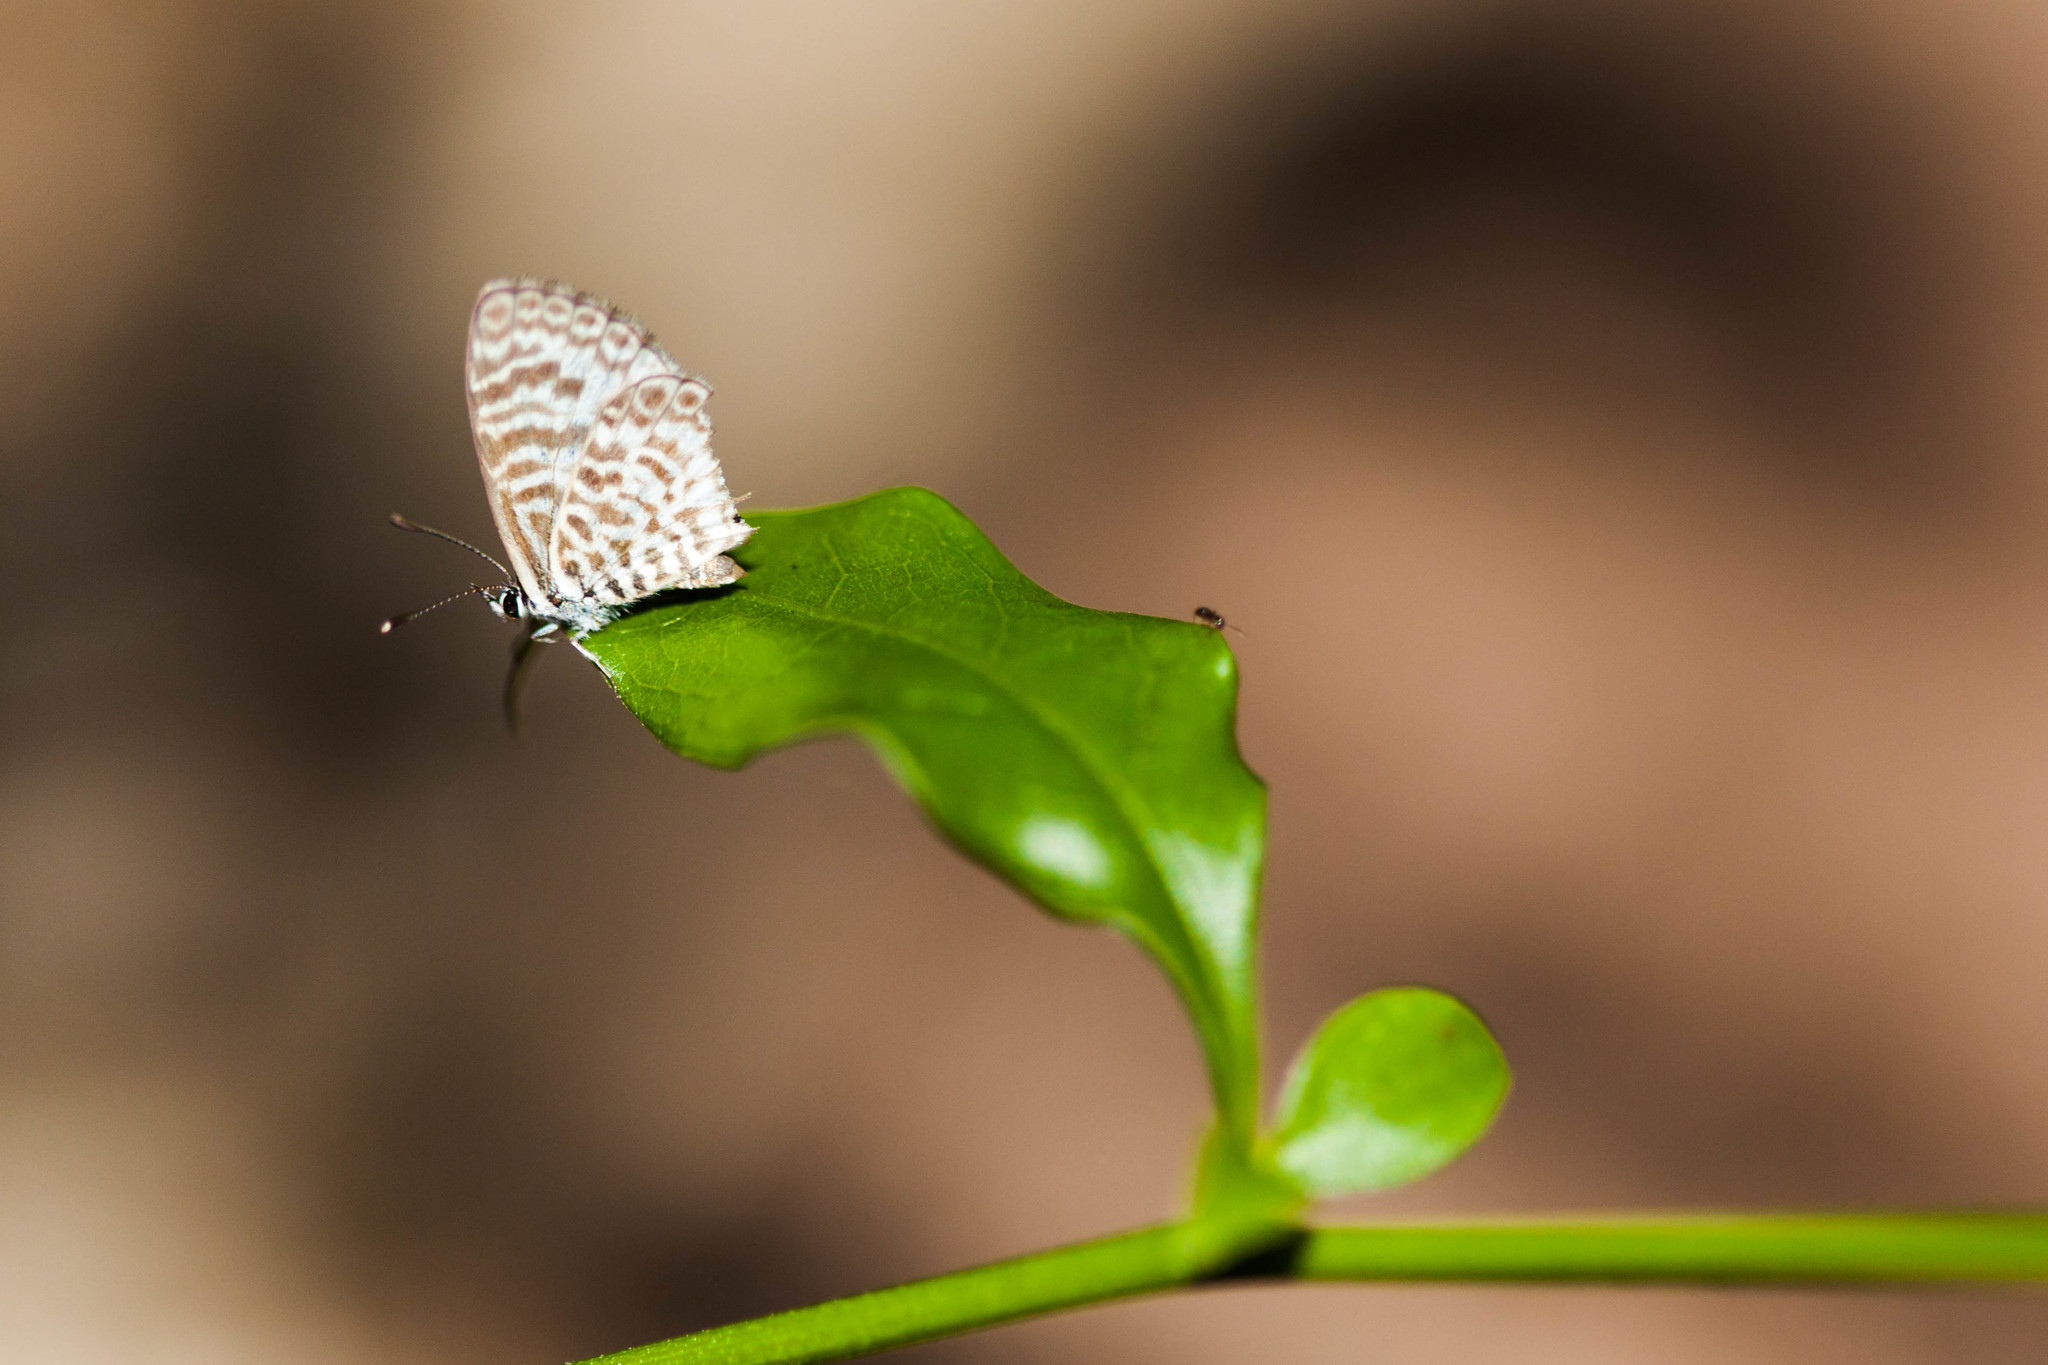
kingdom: Animalia
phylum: Arthropoda
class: Insecta
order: Lepidoptera
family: Lycaenidae
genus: Leptotes
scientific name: Leptotes cassius
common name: Cassius blue
